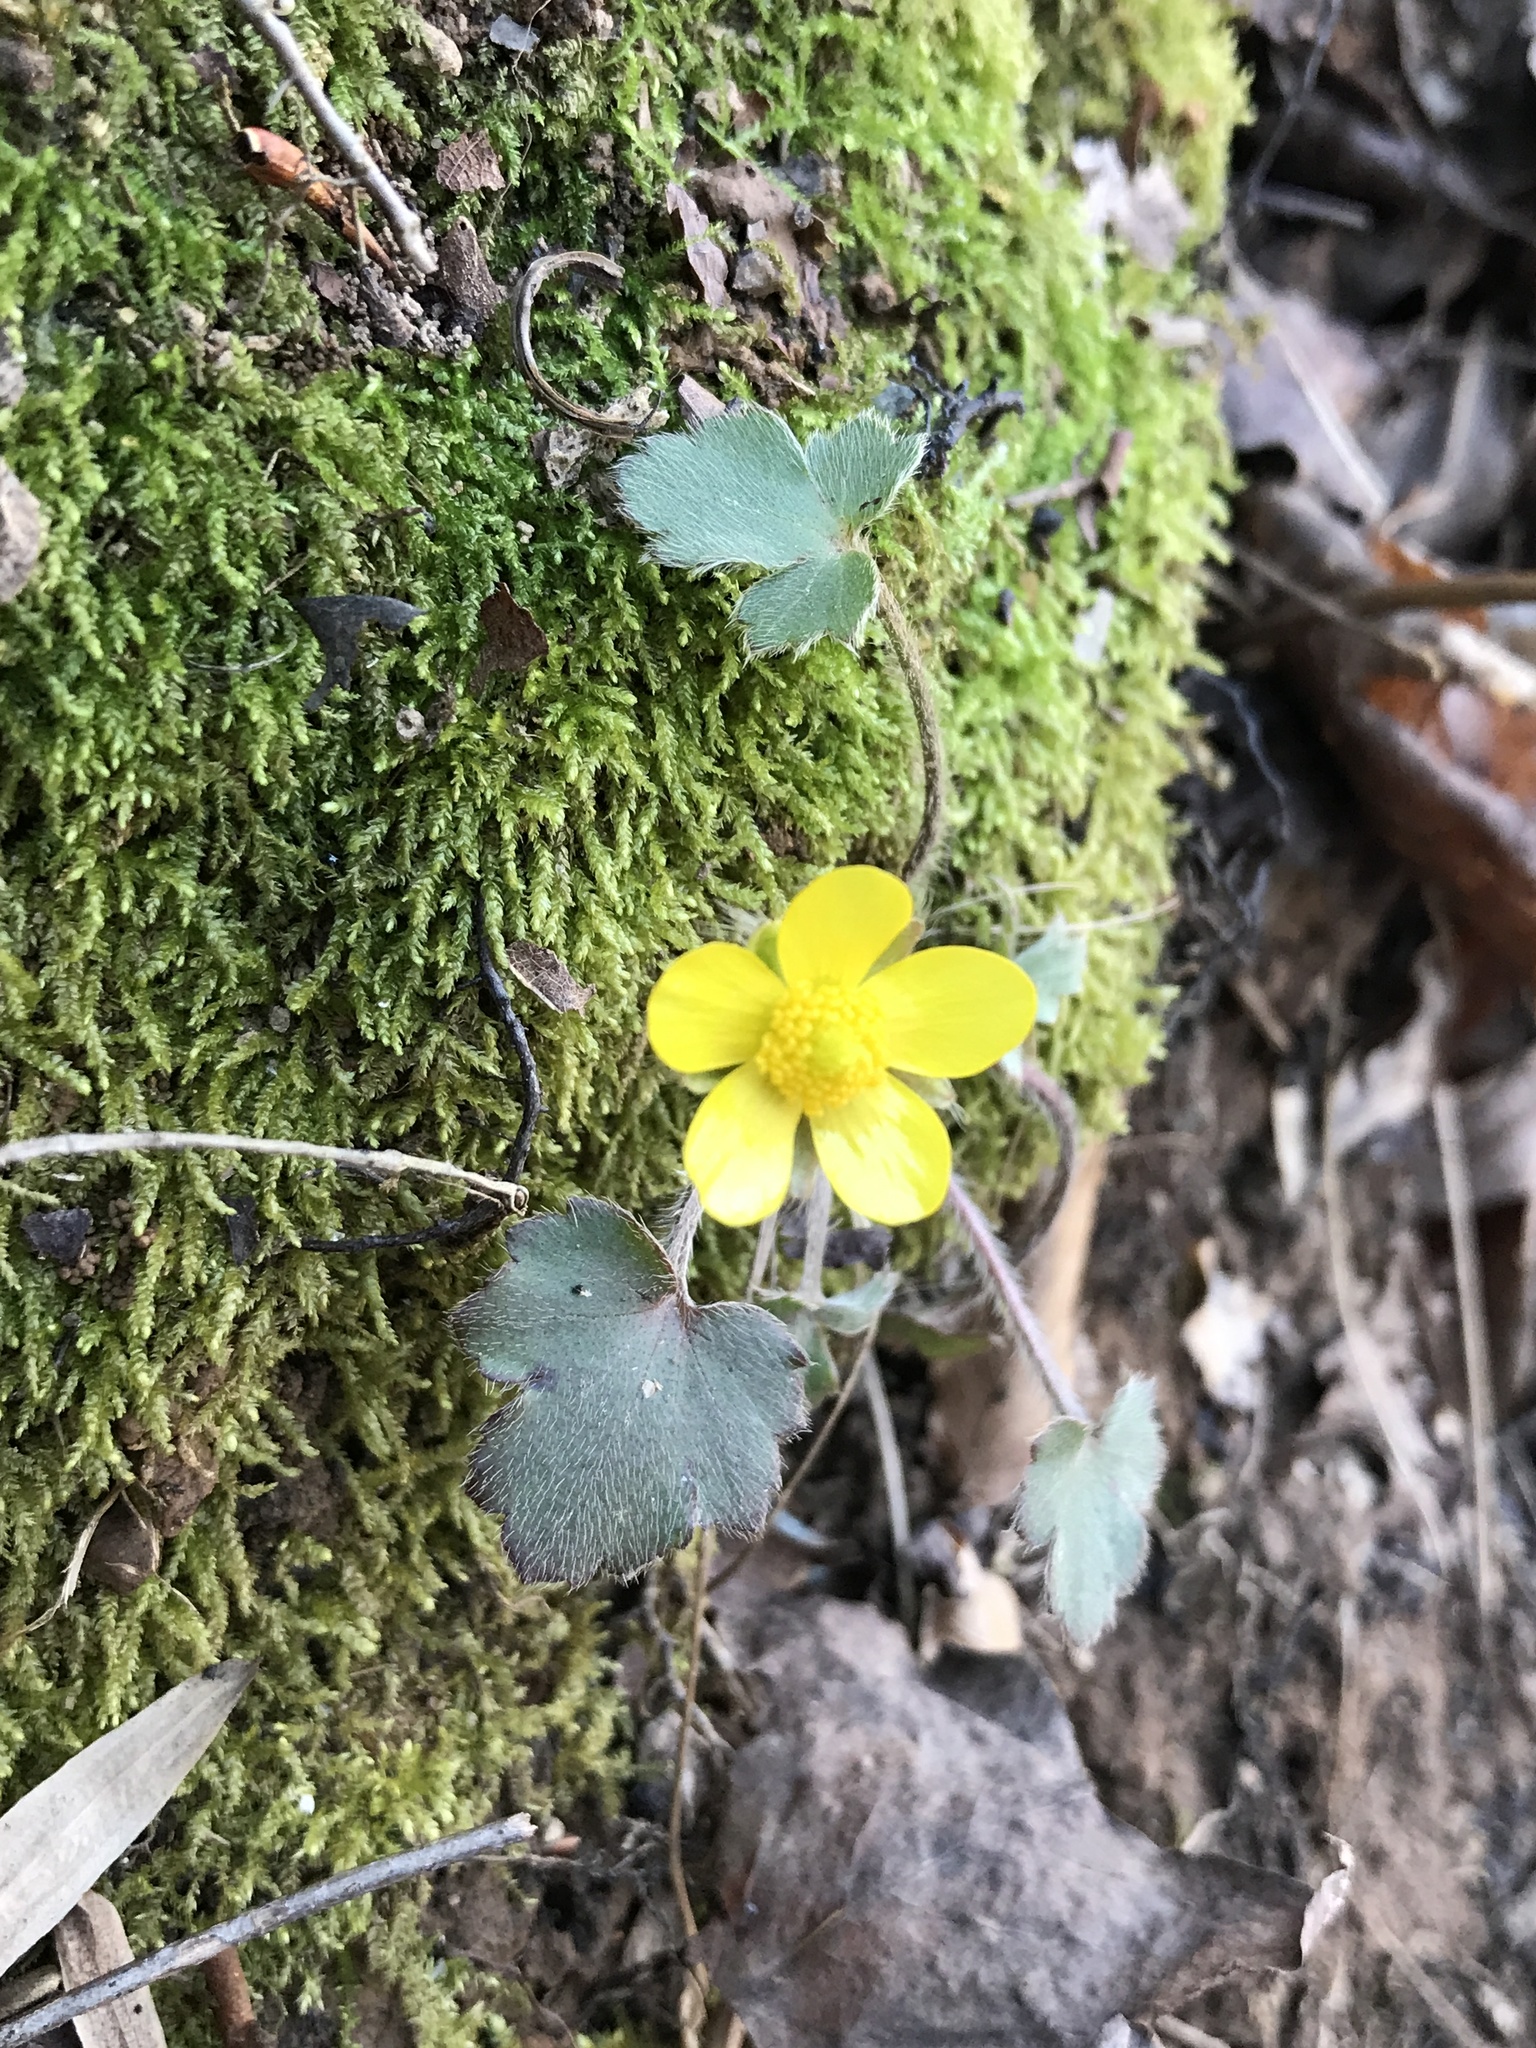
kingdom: Plantae
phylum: Tracheophyta
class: Magnoliopsida
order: Ranunculales
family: Ranunculaceae
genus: Ranunculus
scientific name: Ranunculus hispidus
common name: Bristly buttercup
